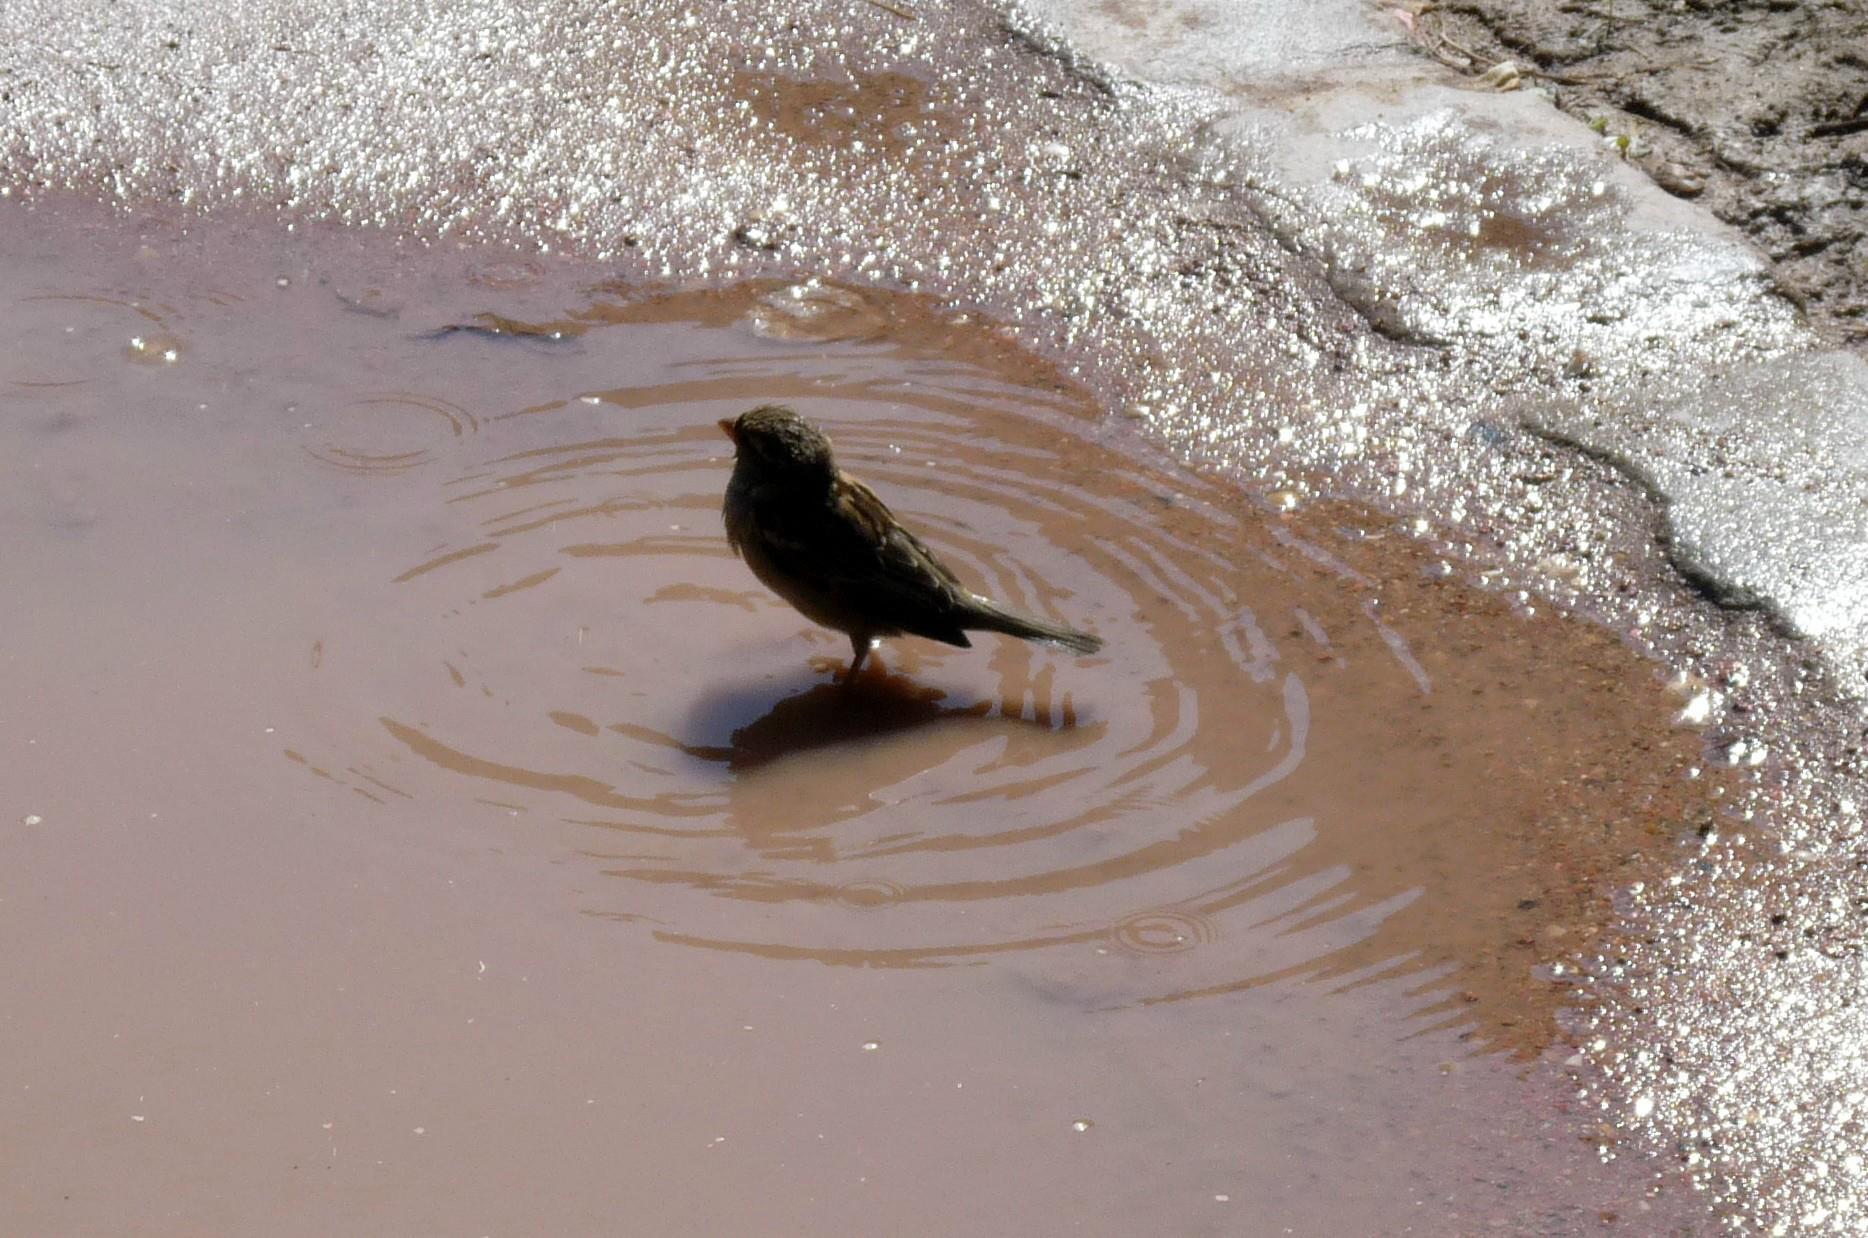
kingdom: Animalia
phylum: Chordata
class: Aves
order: Passeriformes
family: Passeridae
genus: Passer
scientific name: Passer domesticus
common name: House sparrow
